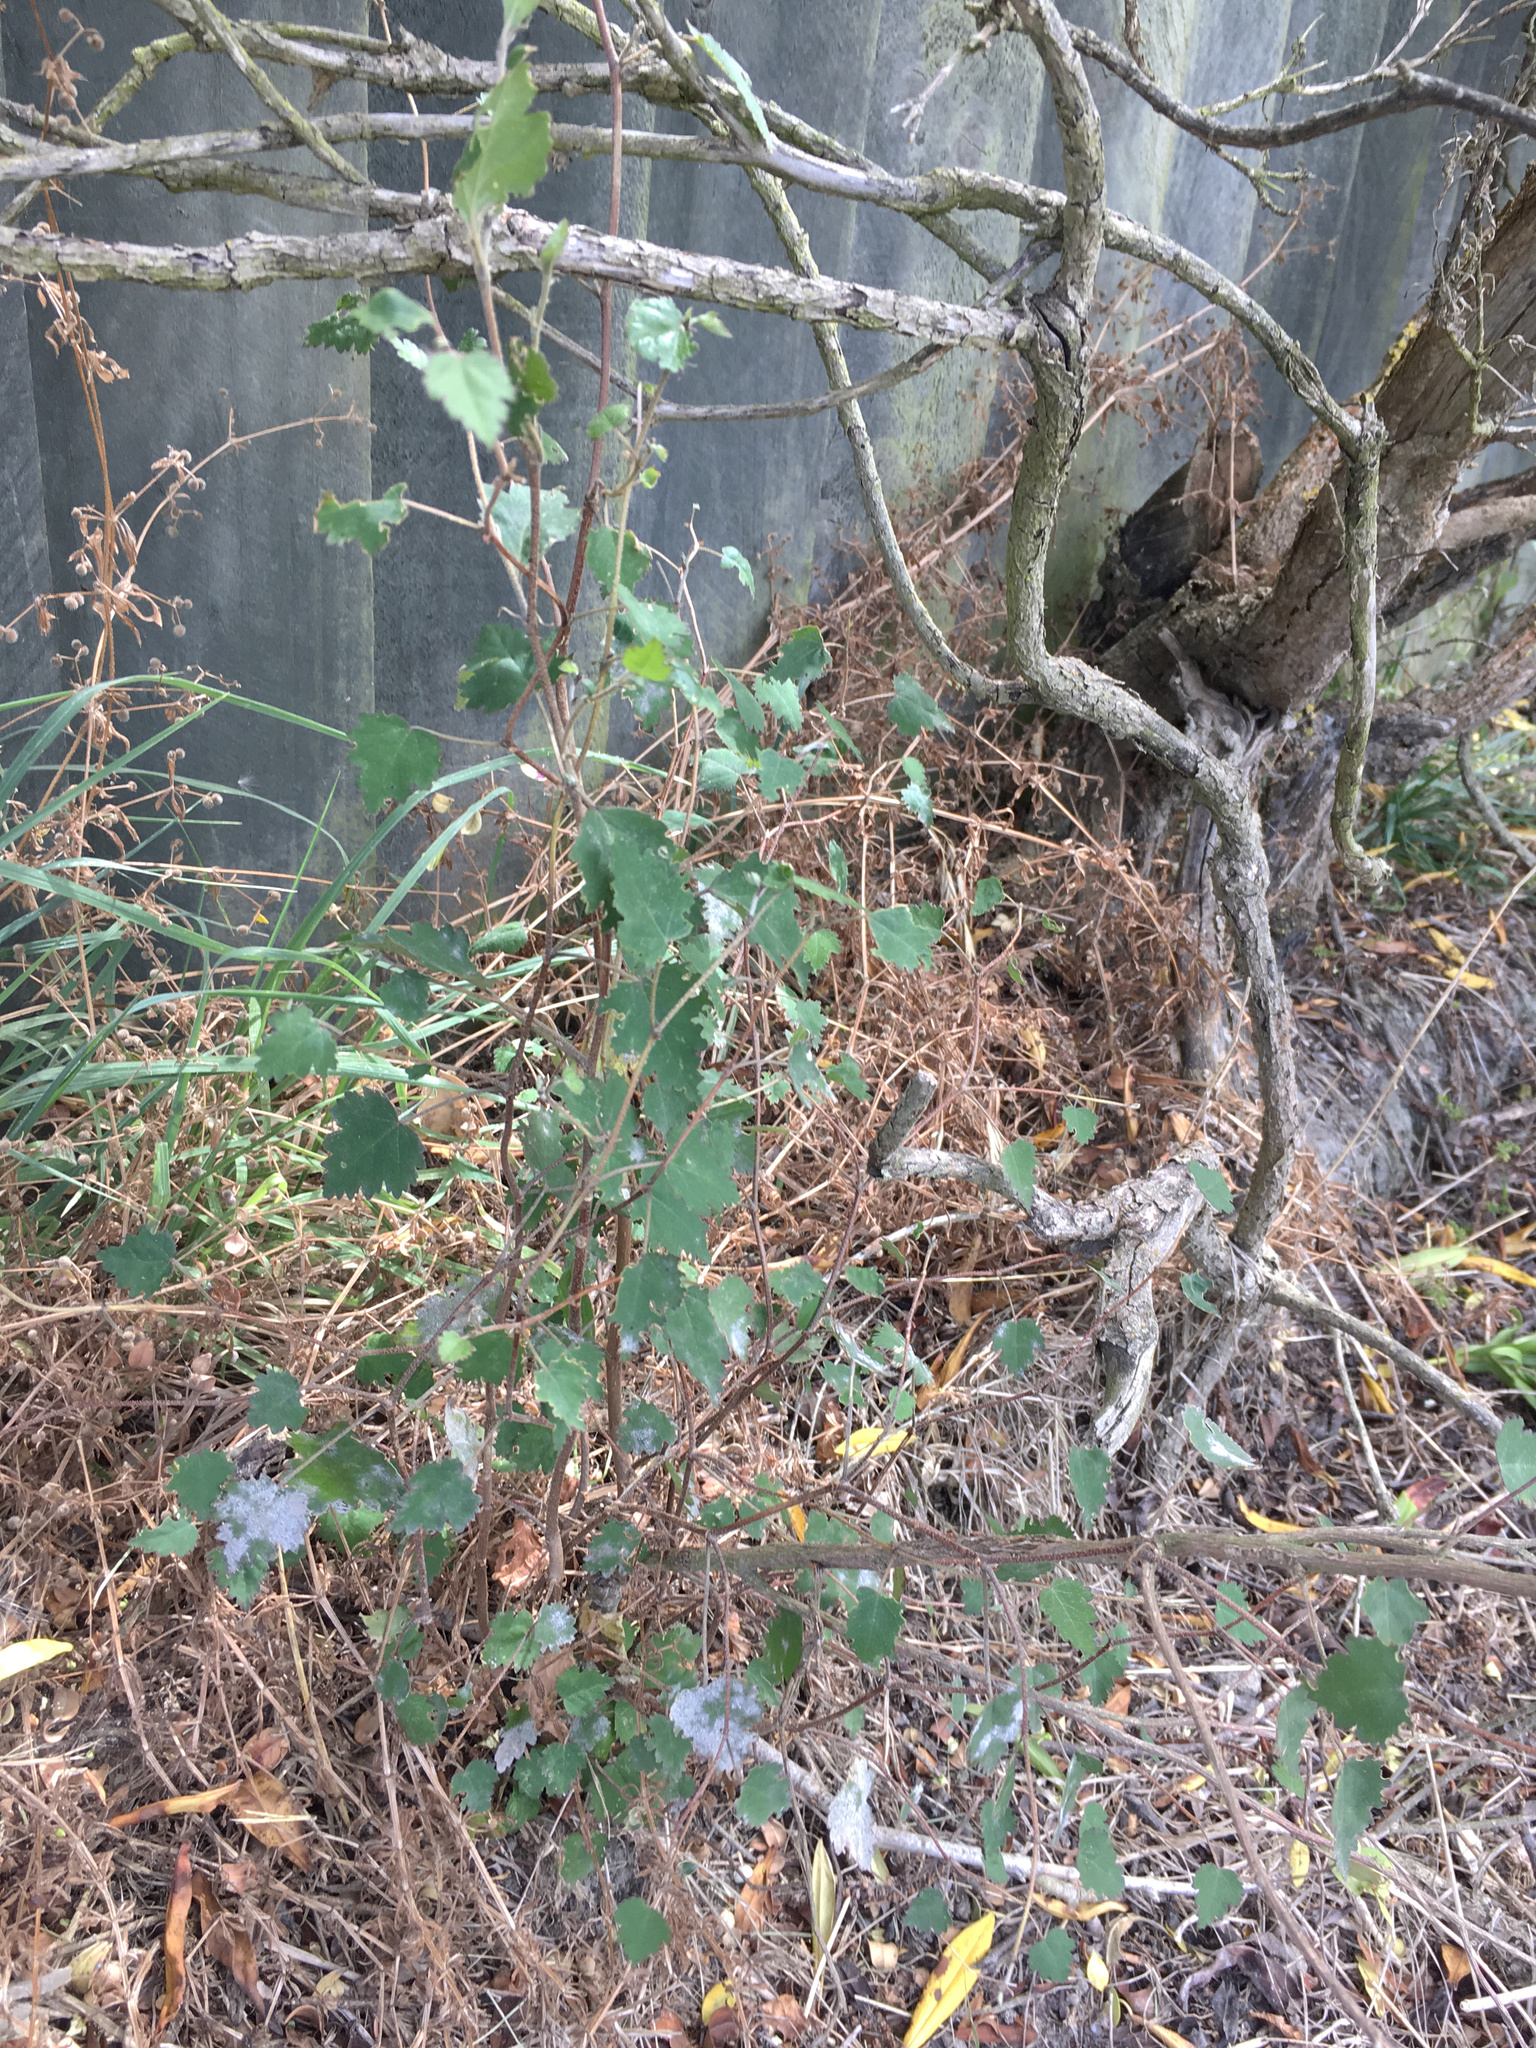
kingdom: Plantae
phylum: Tracheophyta
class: Magnoliopsida
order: Malvales
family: Malvaceae
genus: Plagianthus
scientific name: Plagianthus regius
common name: Manatu
